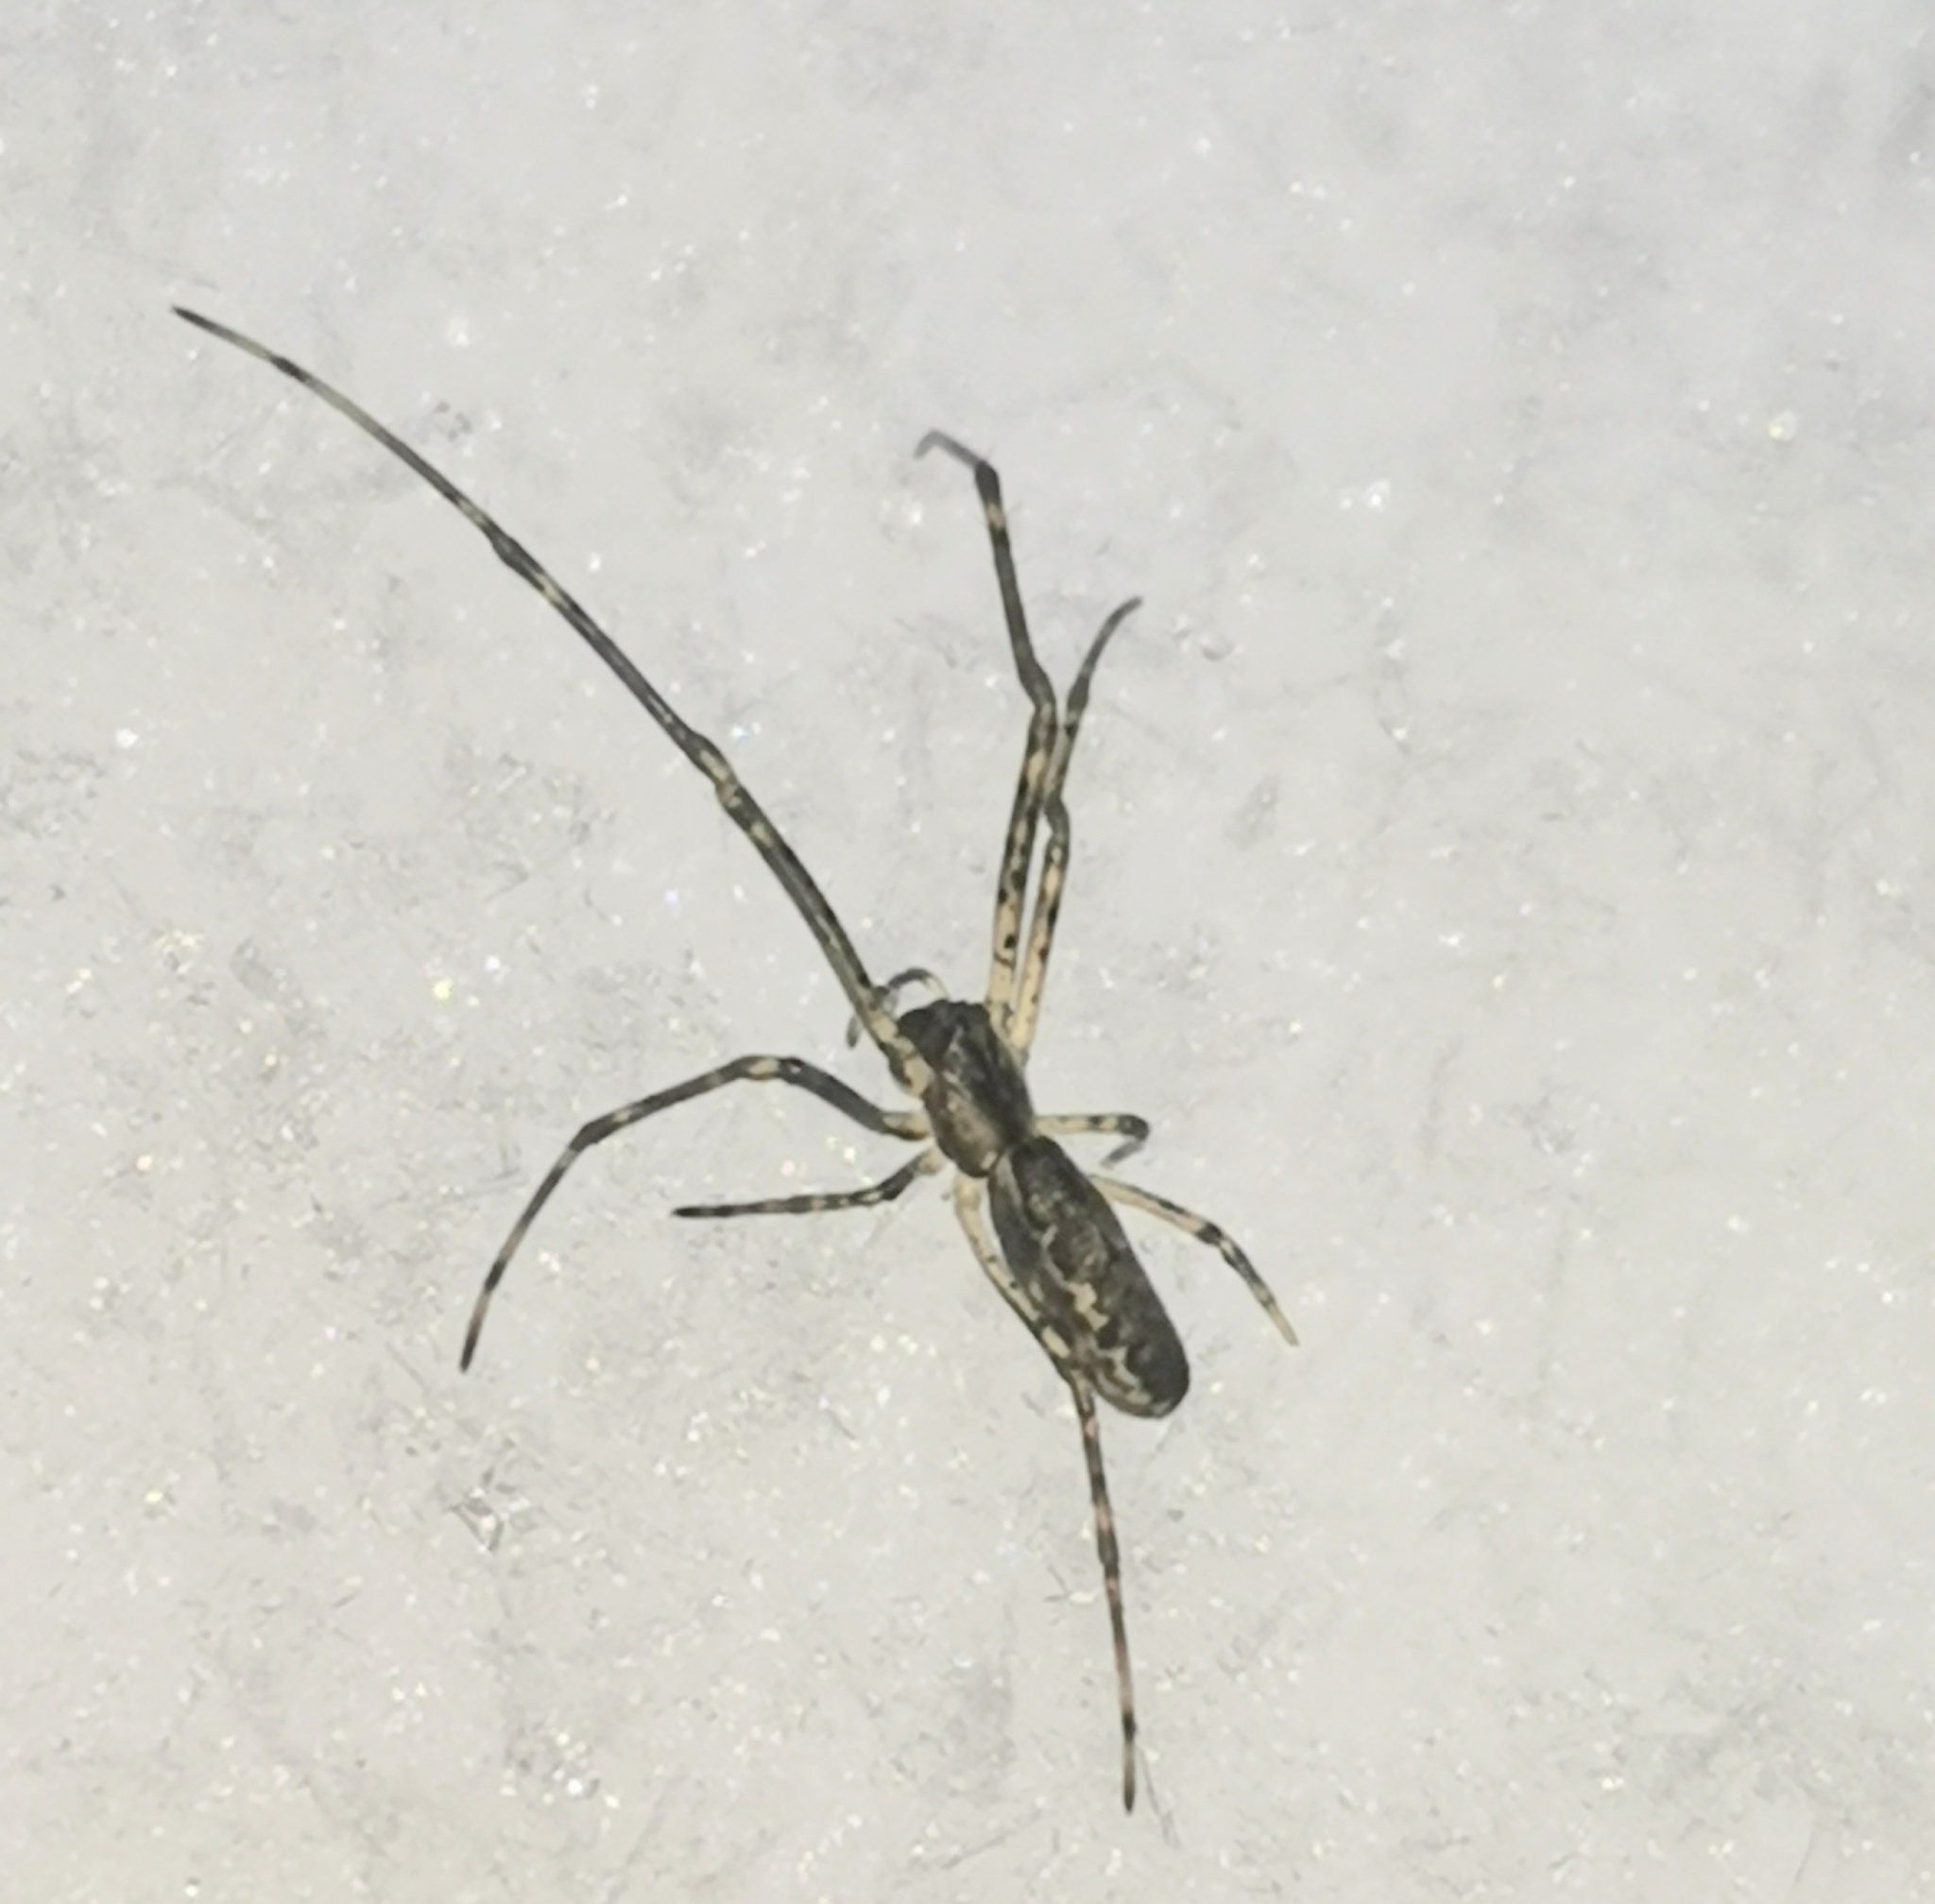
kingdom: Animalia
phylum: Arthropoda
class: Arachnida
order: Araneae
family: Tetragnathidae
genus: Tetragnatha
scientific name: Tetragnatha obtusa
